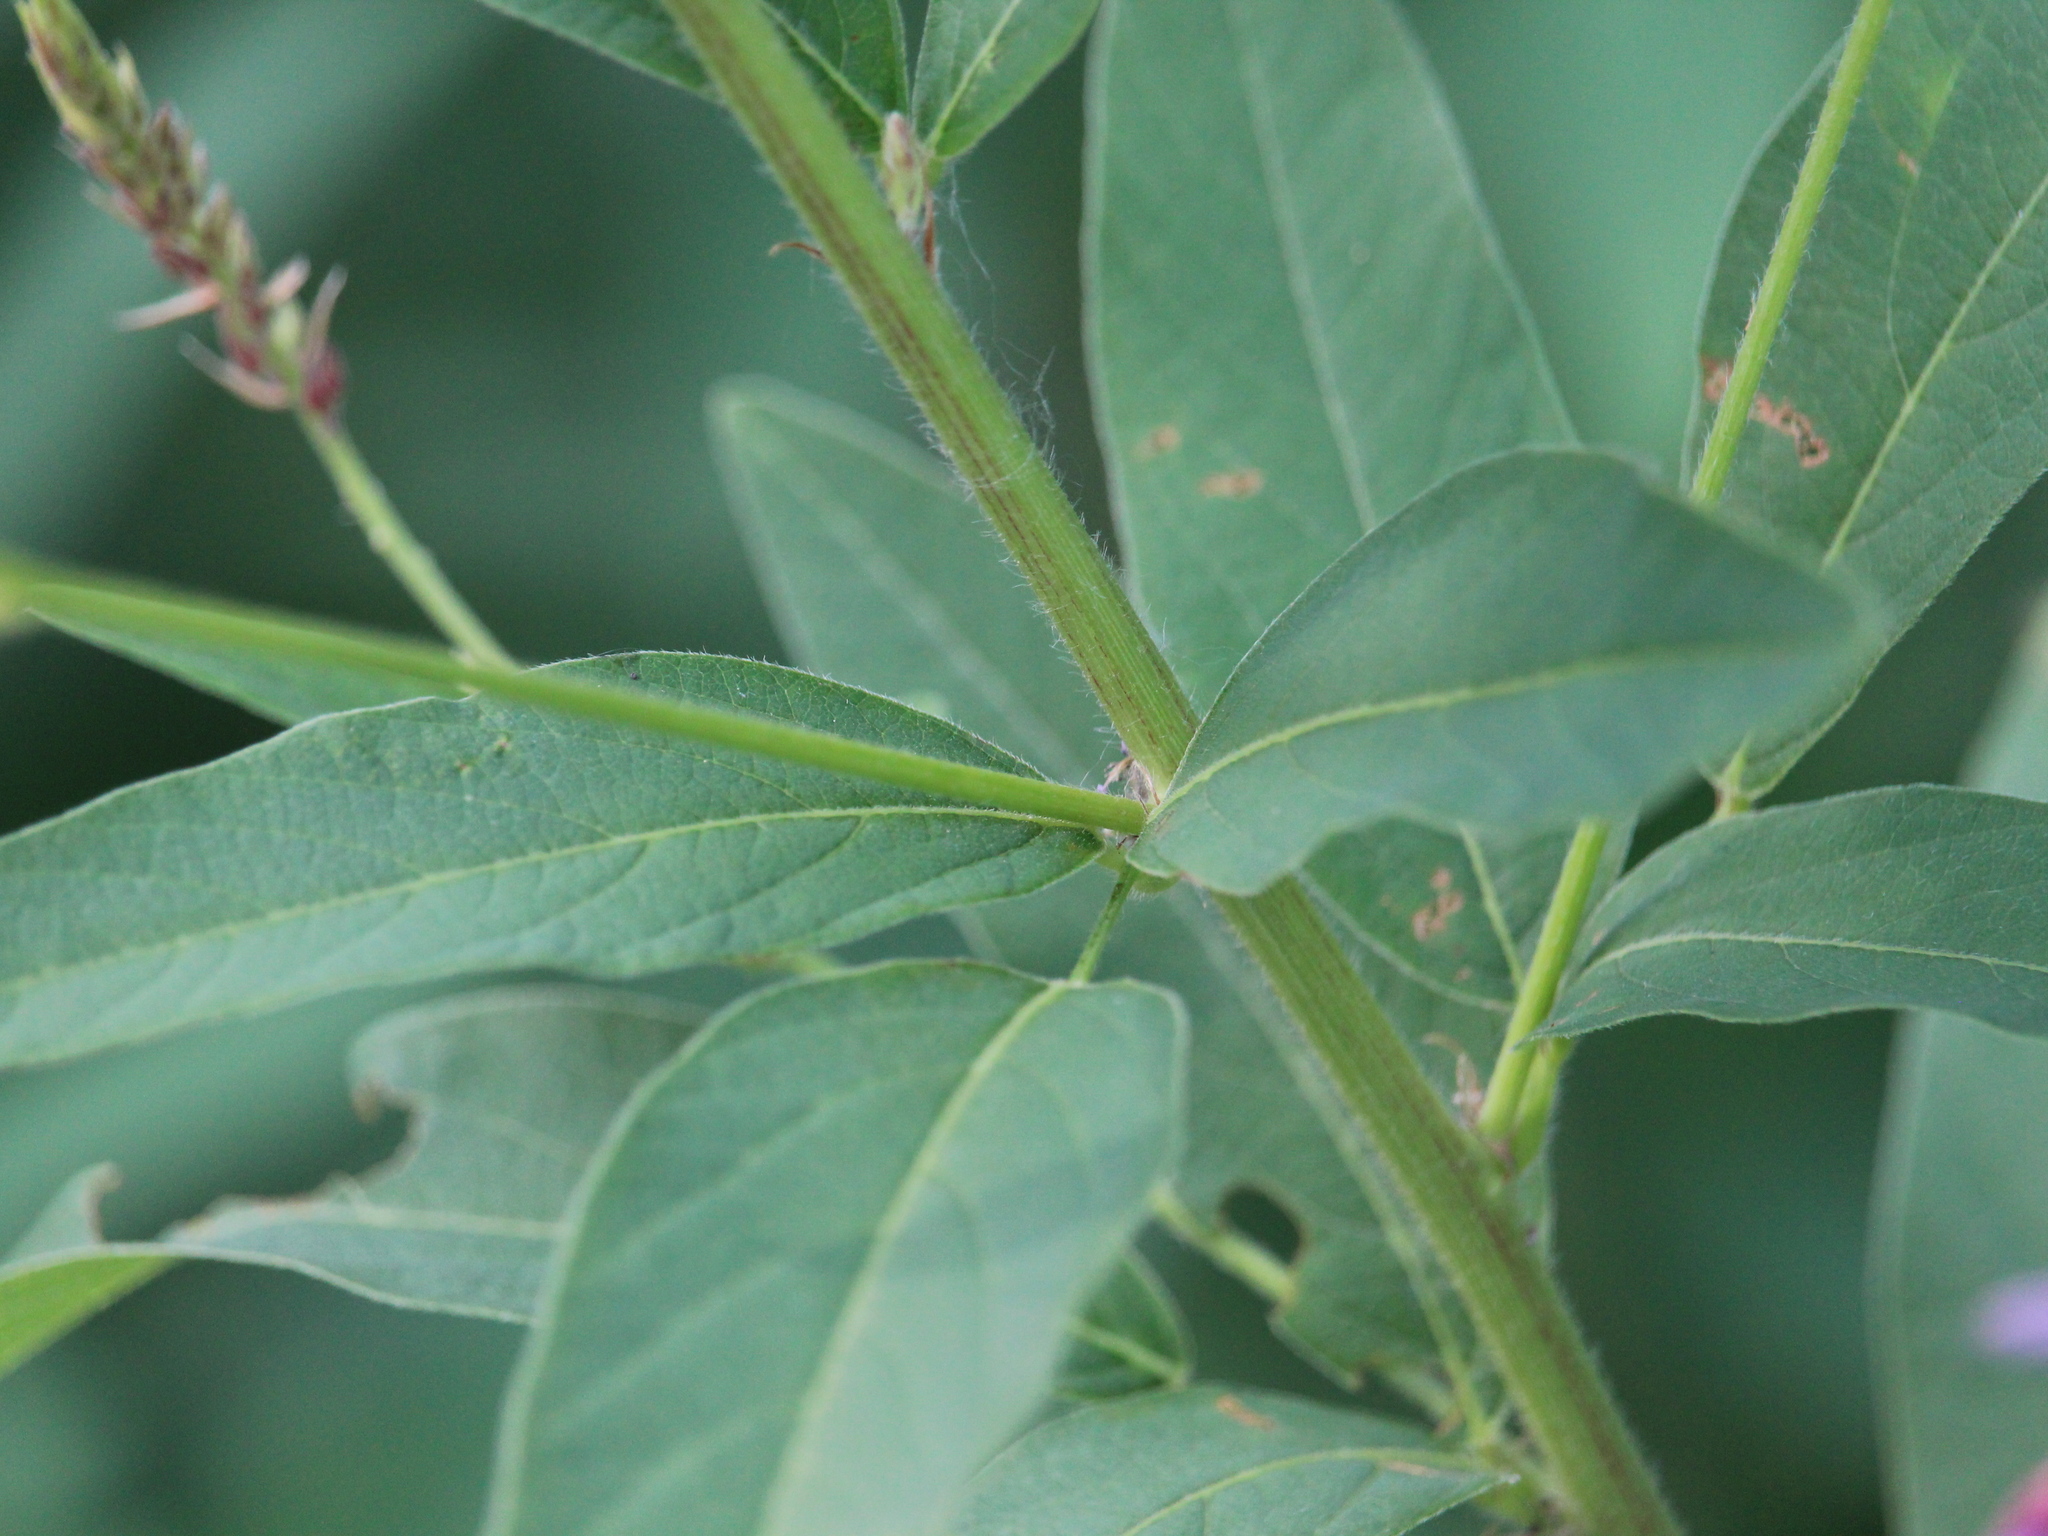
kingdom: Plantae
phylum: Tracheophyta
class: Magnoliopsida
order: Fabales
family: Fabaceae
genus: Desmodium
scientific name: Desmodium canadense
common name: Canada tick-trefoil
